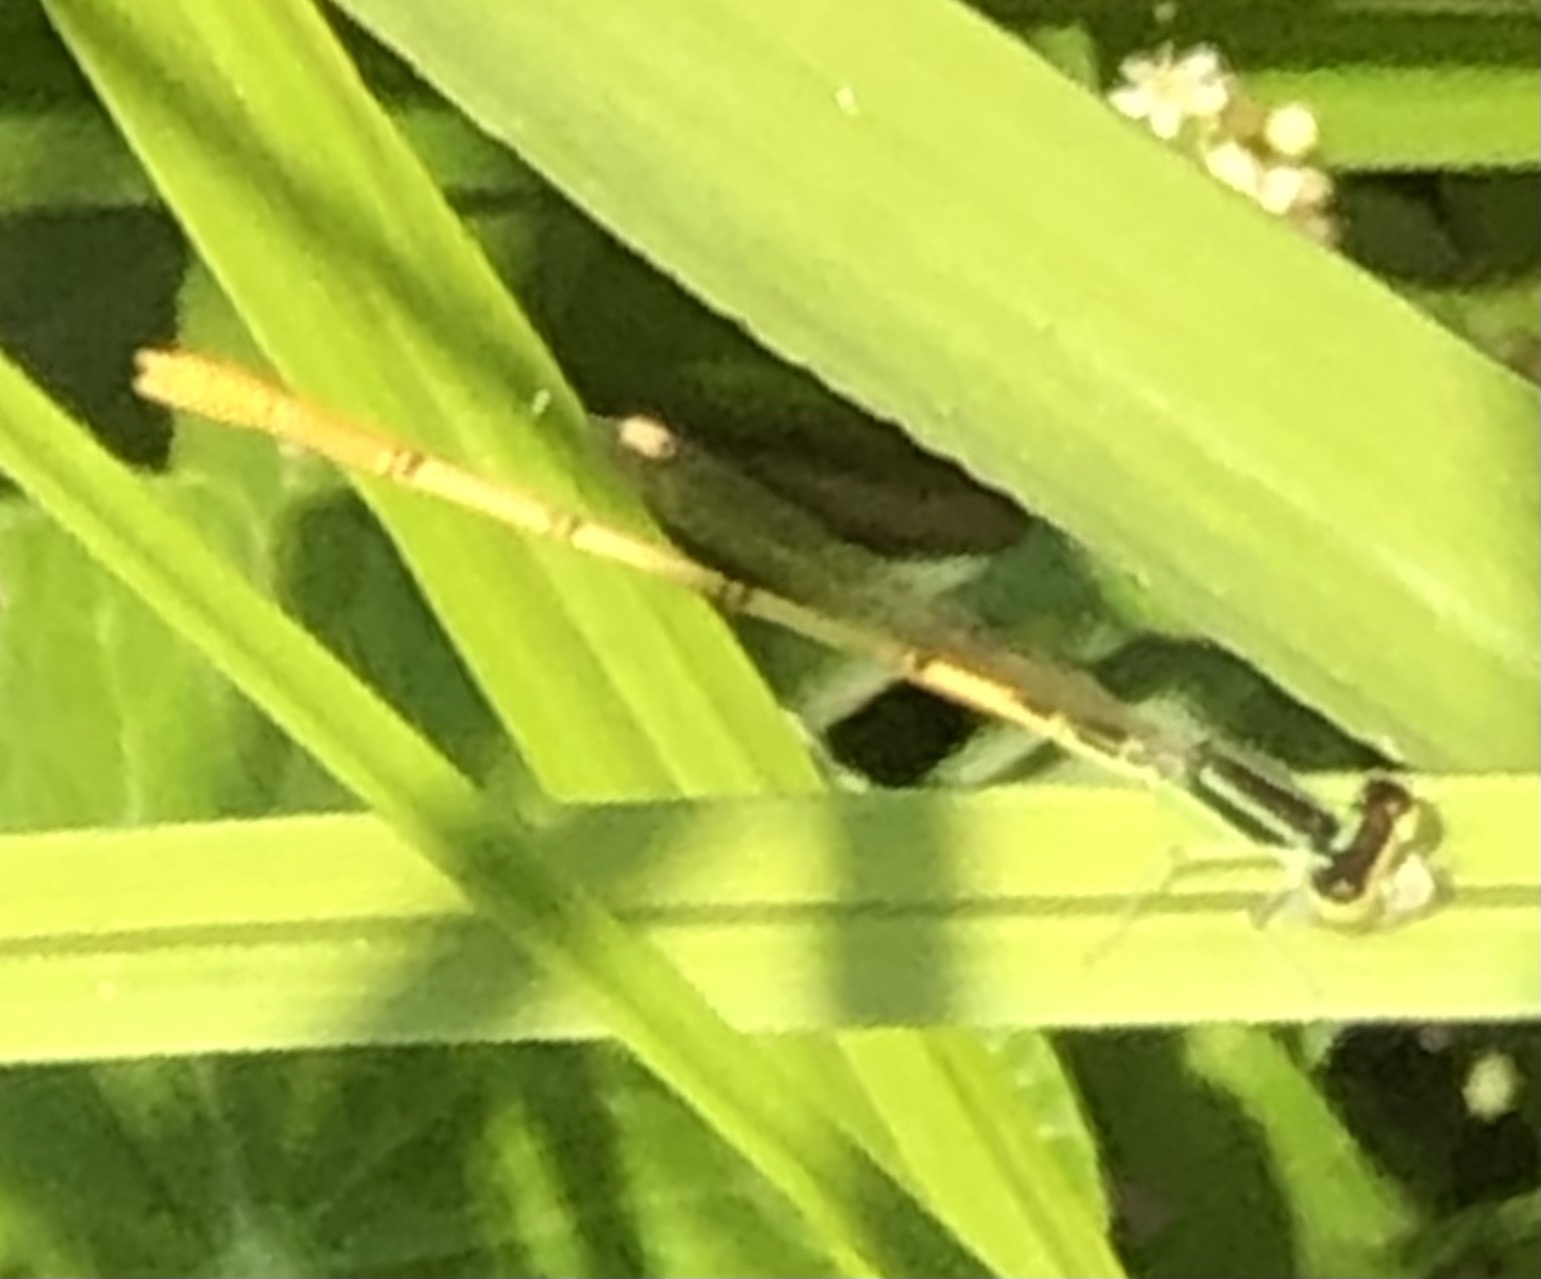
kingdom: Animalia
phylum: Arthropoda
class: Insecta
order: Odonata
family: Coenagrionidae
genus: Ischnura
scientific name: Ischnura hastata
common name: Citrine forktail
